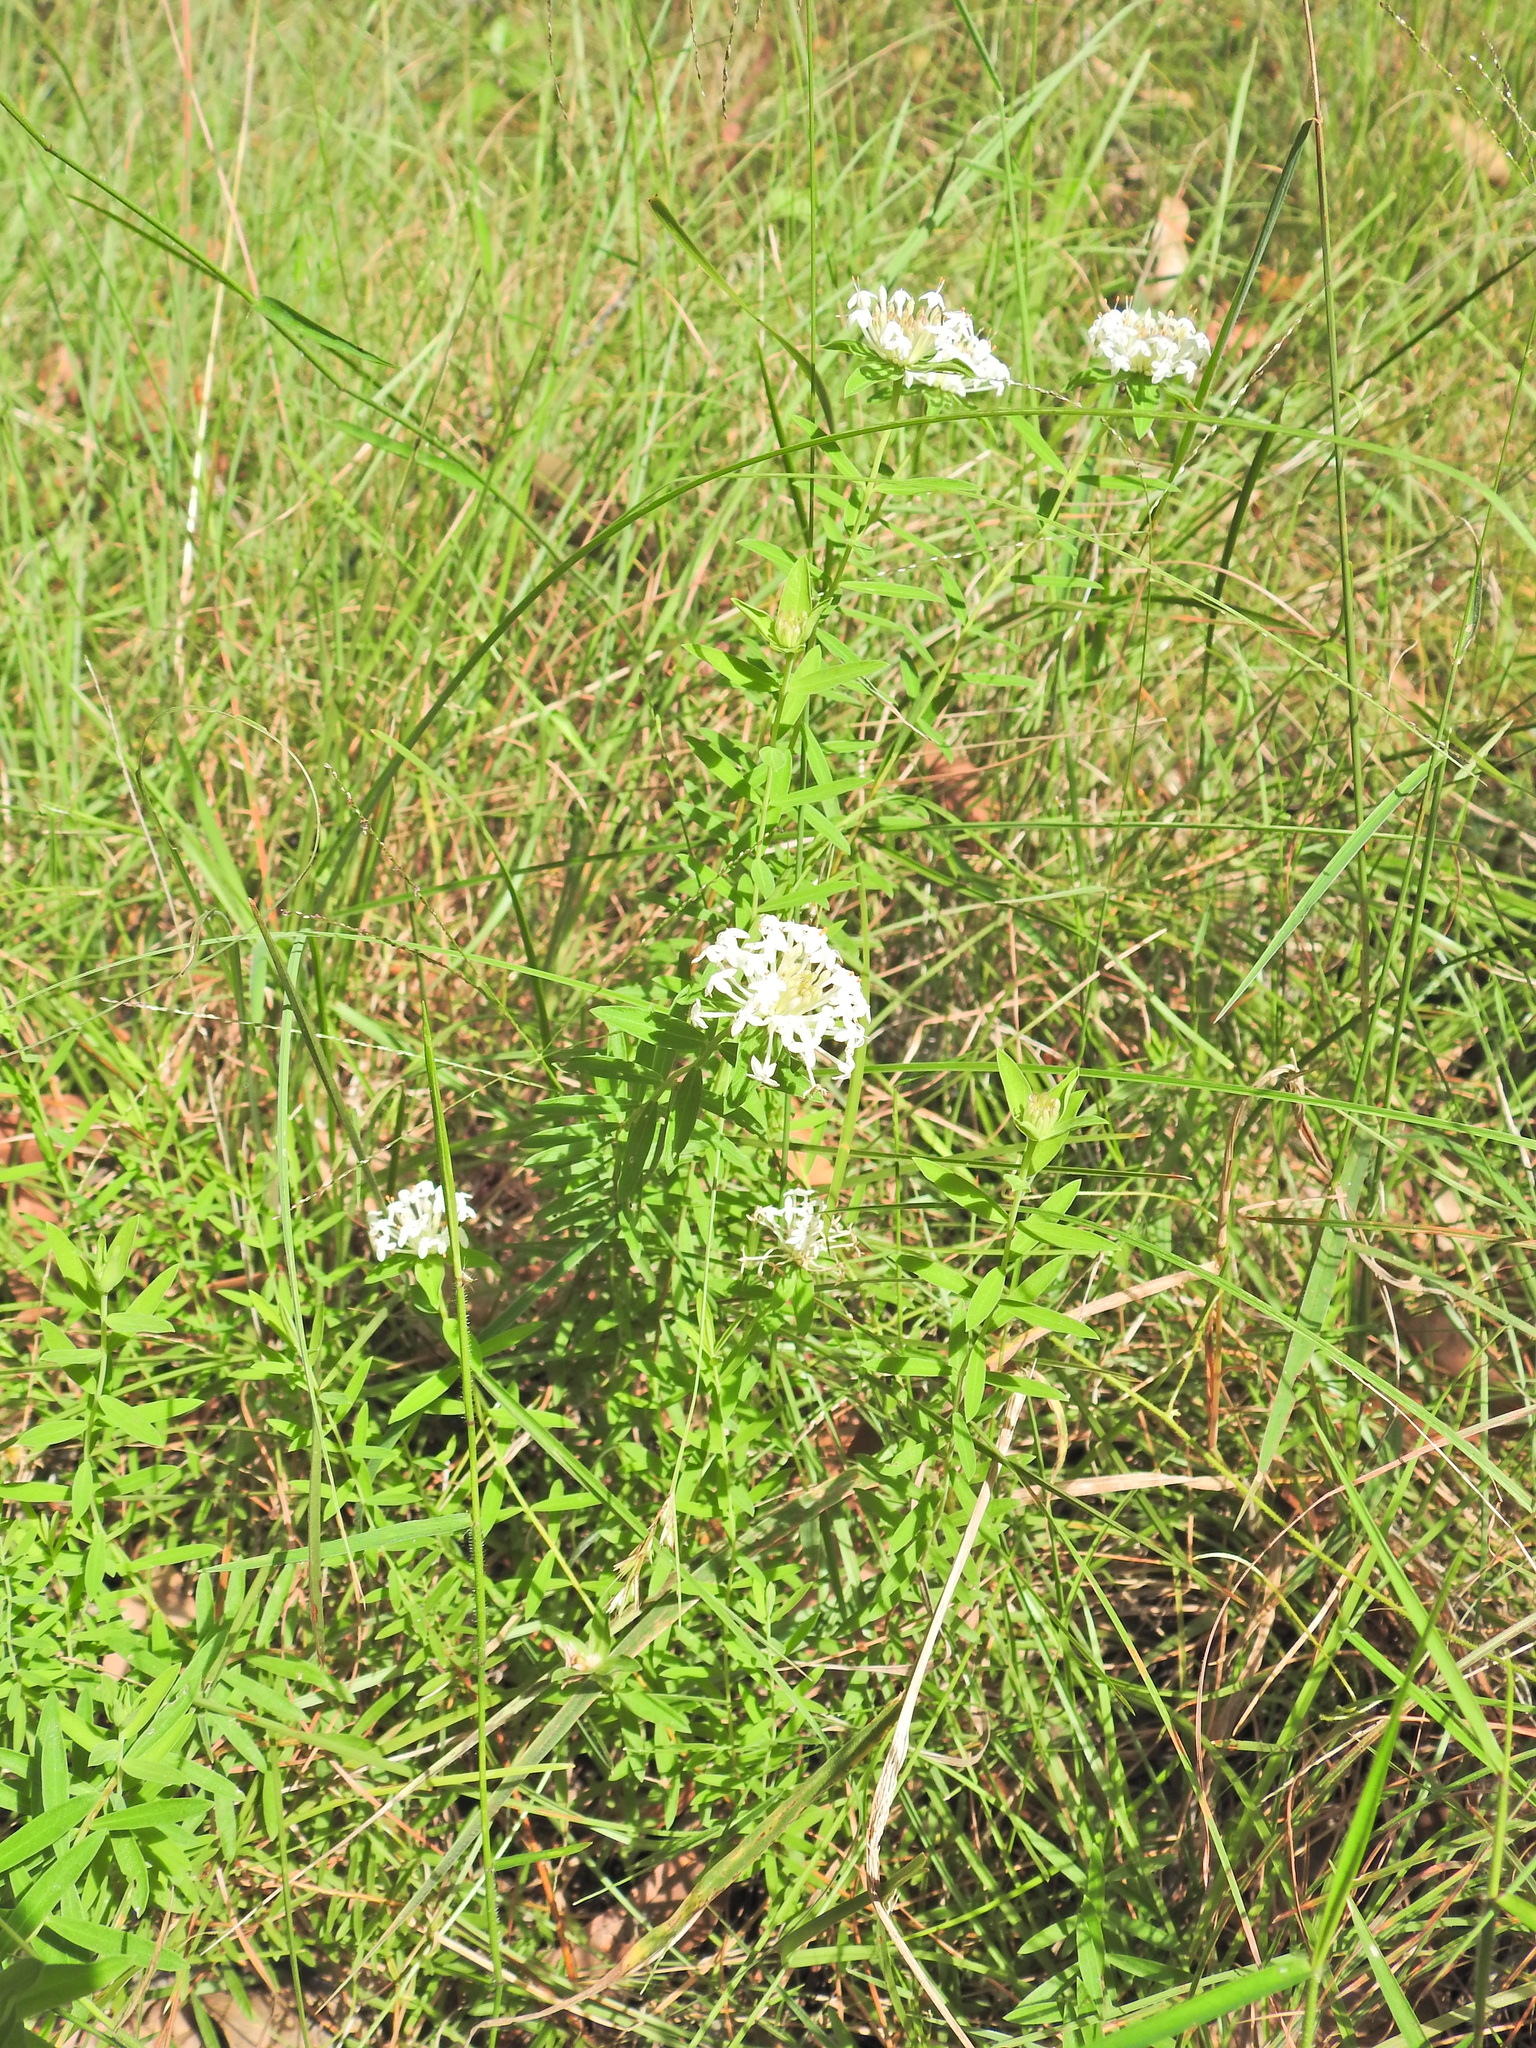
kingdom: Plantae
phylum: Tracheophyta
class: Magnoliopsida
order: Malvales
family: Thymelaeaceae
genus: Pimelea
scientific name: Pimelea linifolia
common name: Queen-of-the-bush
